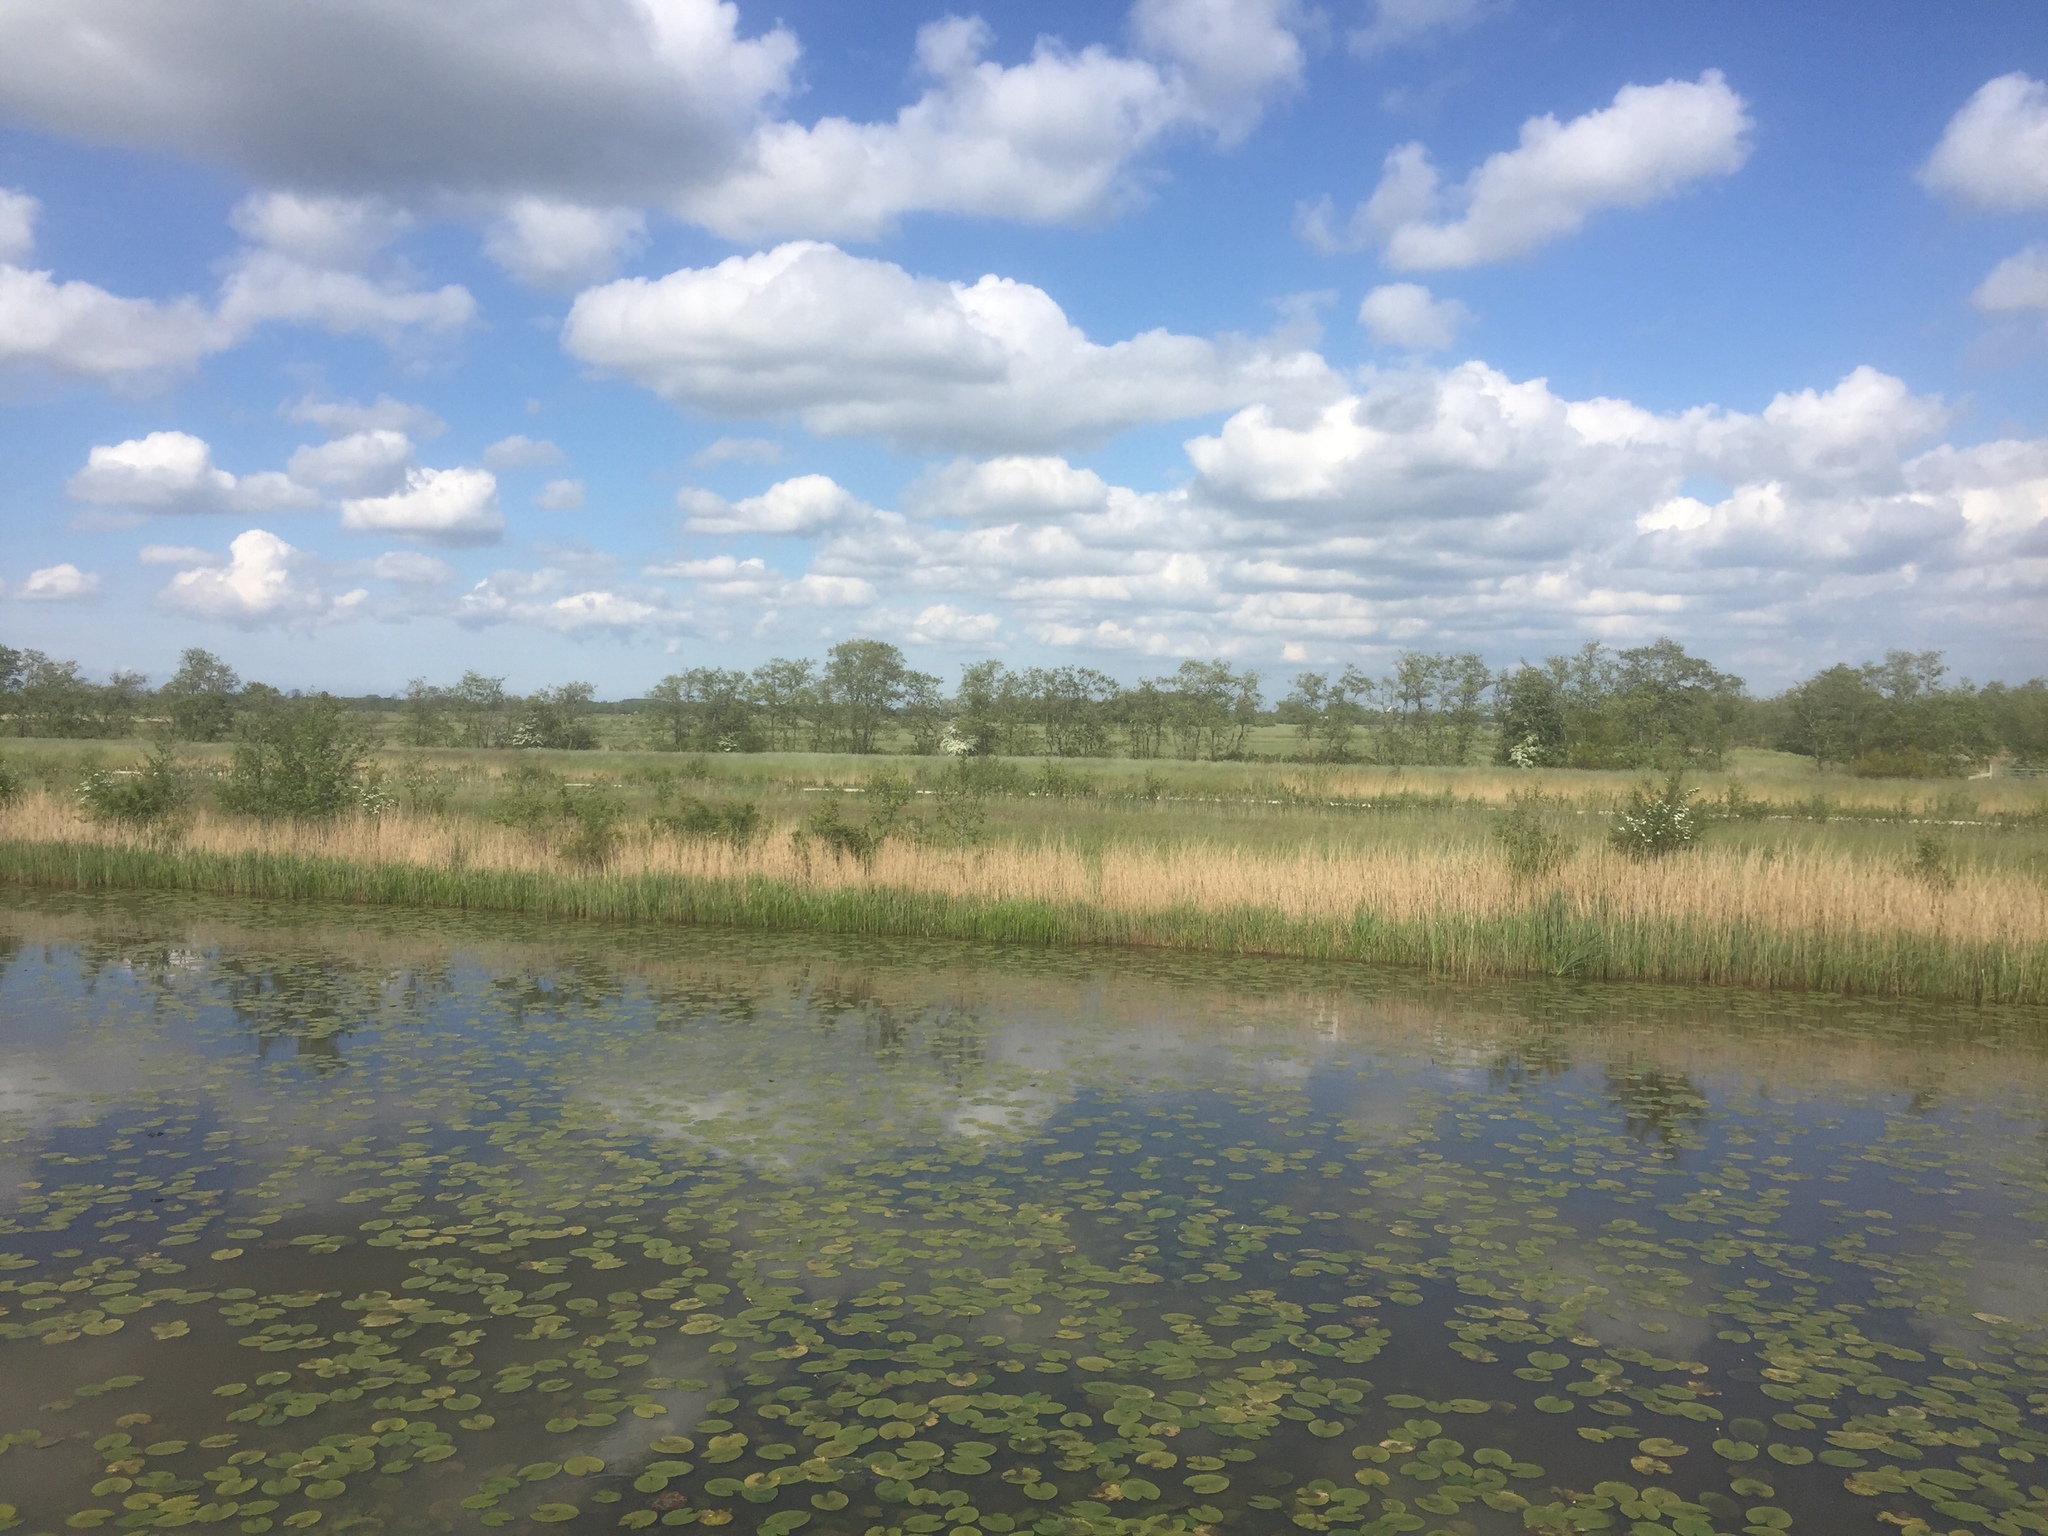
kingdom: Plantae
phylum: Tracheophyta
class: Magnoliopsida
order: Nymphaeales
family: Nymphaeaceae
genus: Nuphar
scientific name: Nuphar lutea
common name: Yellow water-lily
